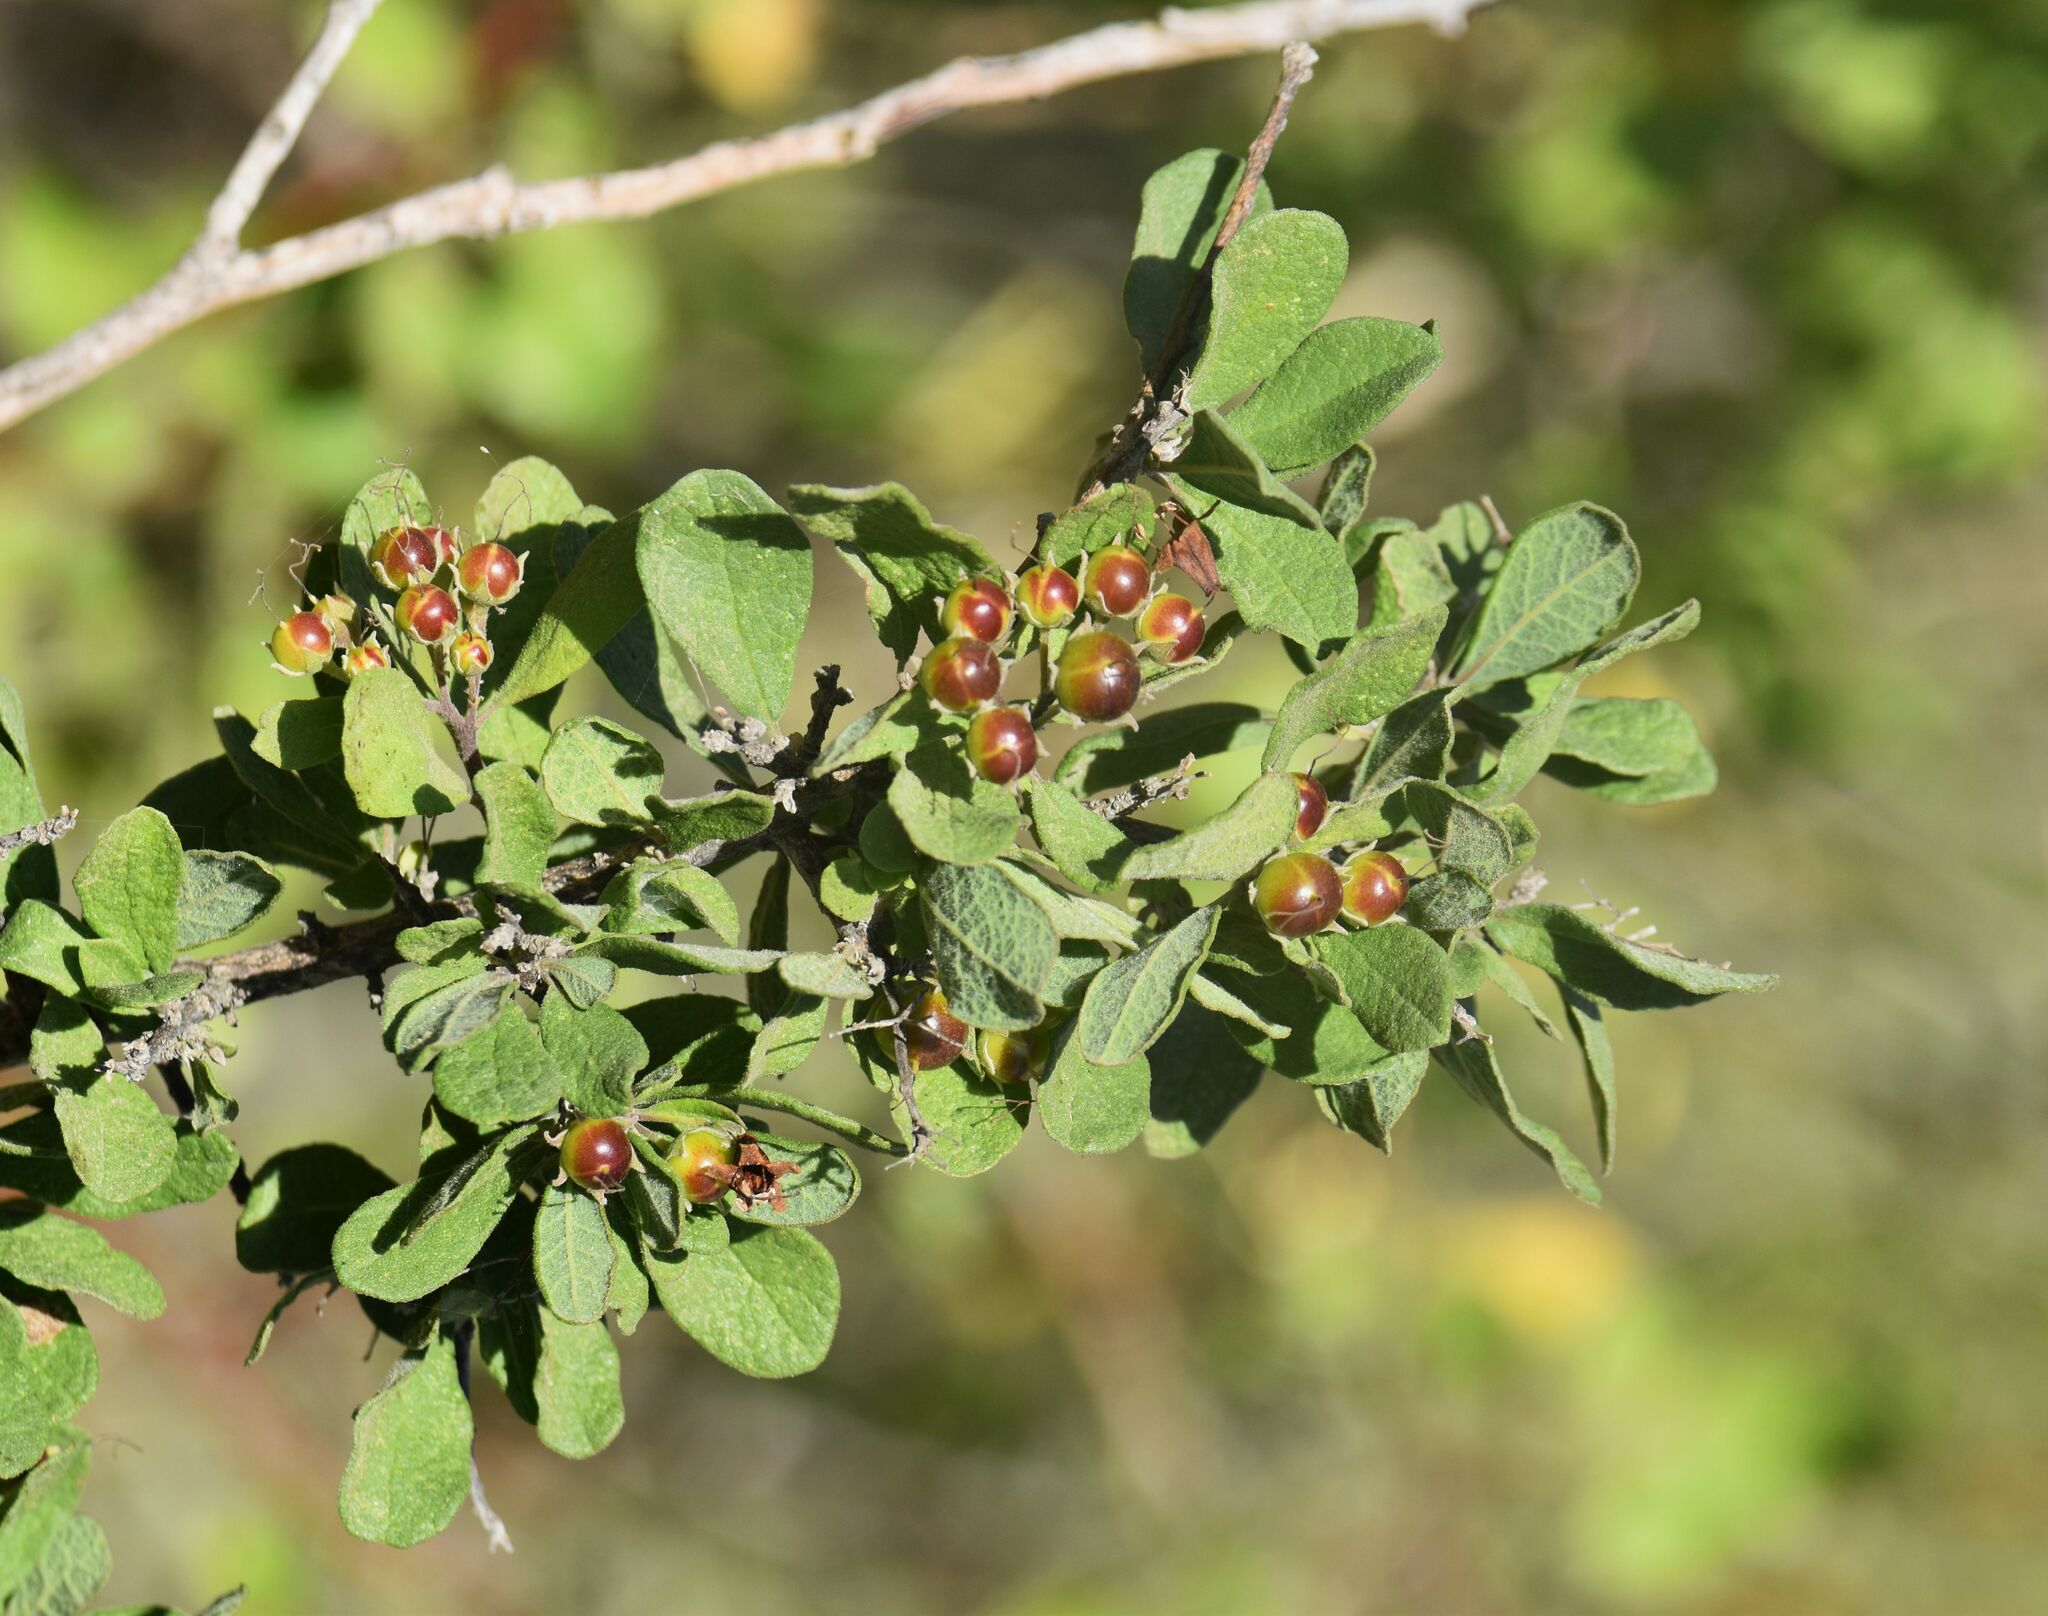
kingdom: Plantae
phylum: Tracheophyta
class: Magnoliopsida
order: Boraginales
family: Ehretiaceae
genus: Bourreria
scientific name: Bourreria sonorae
